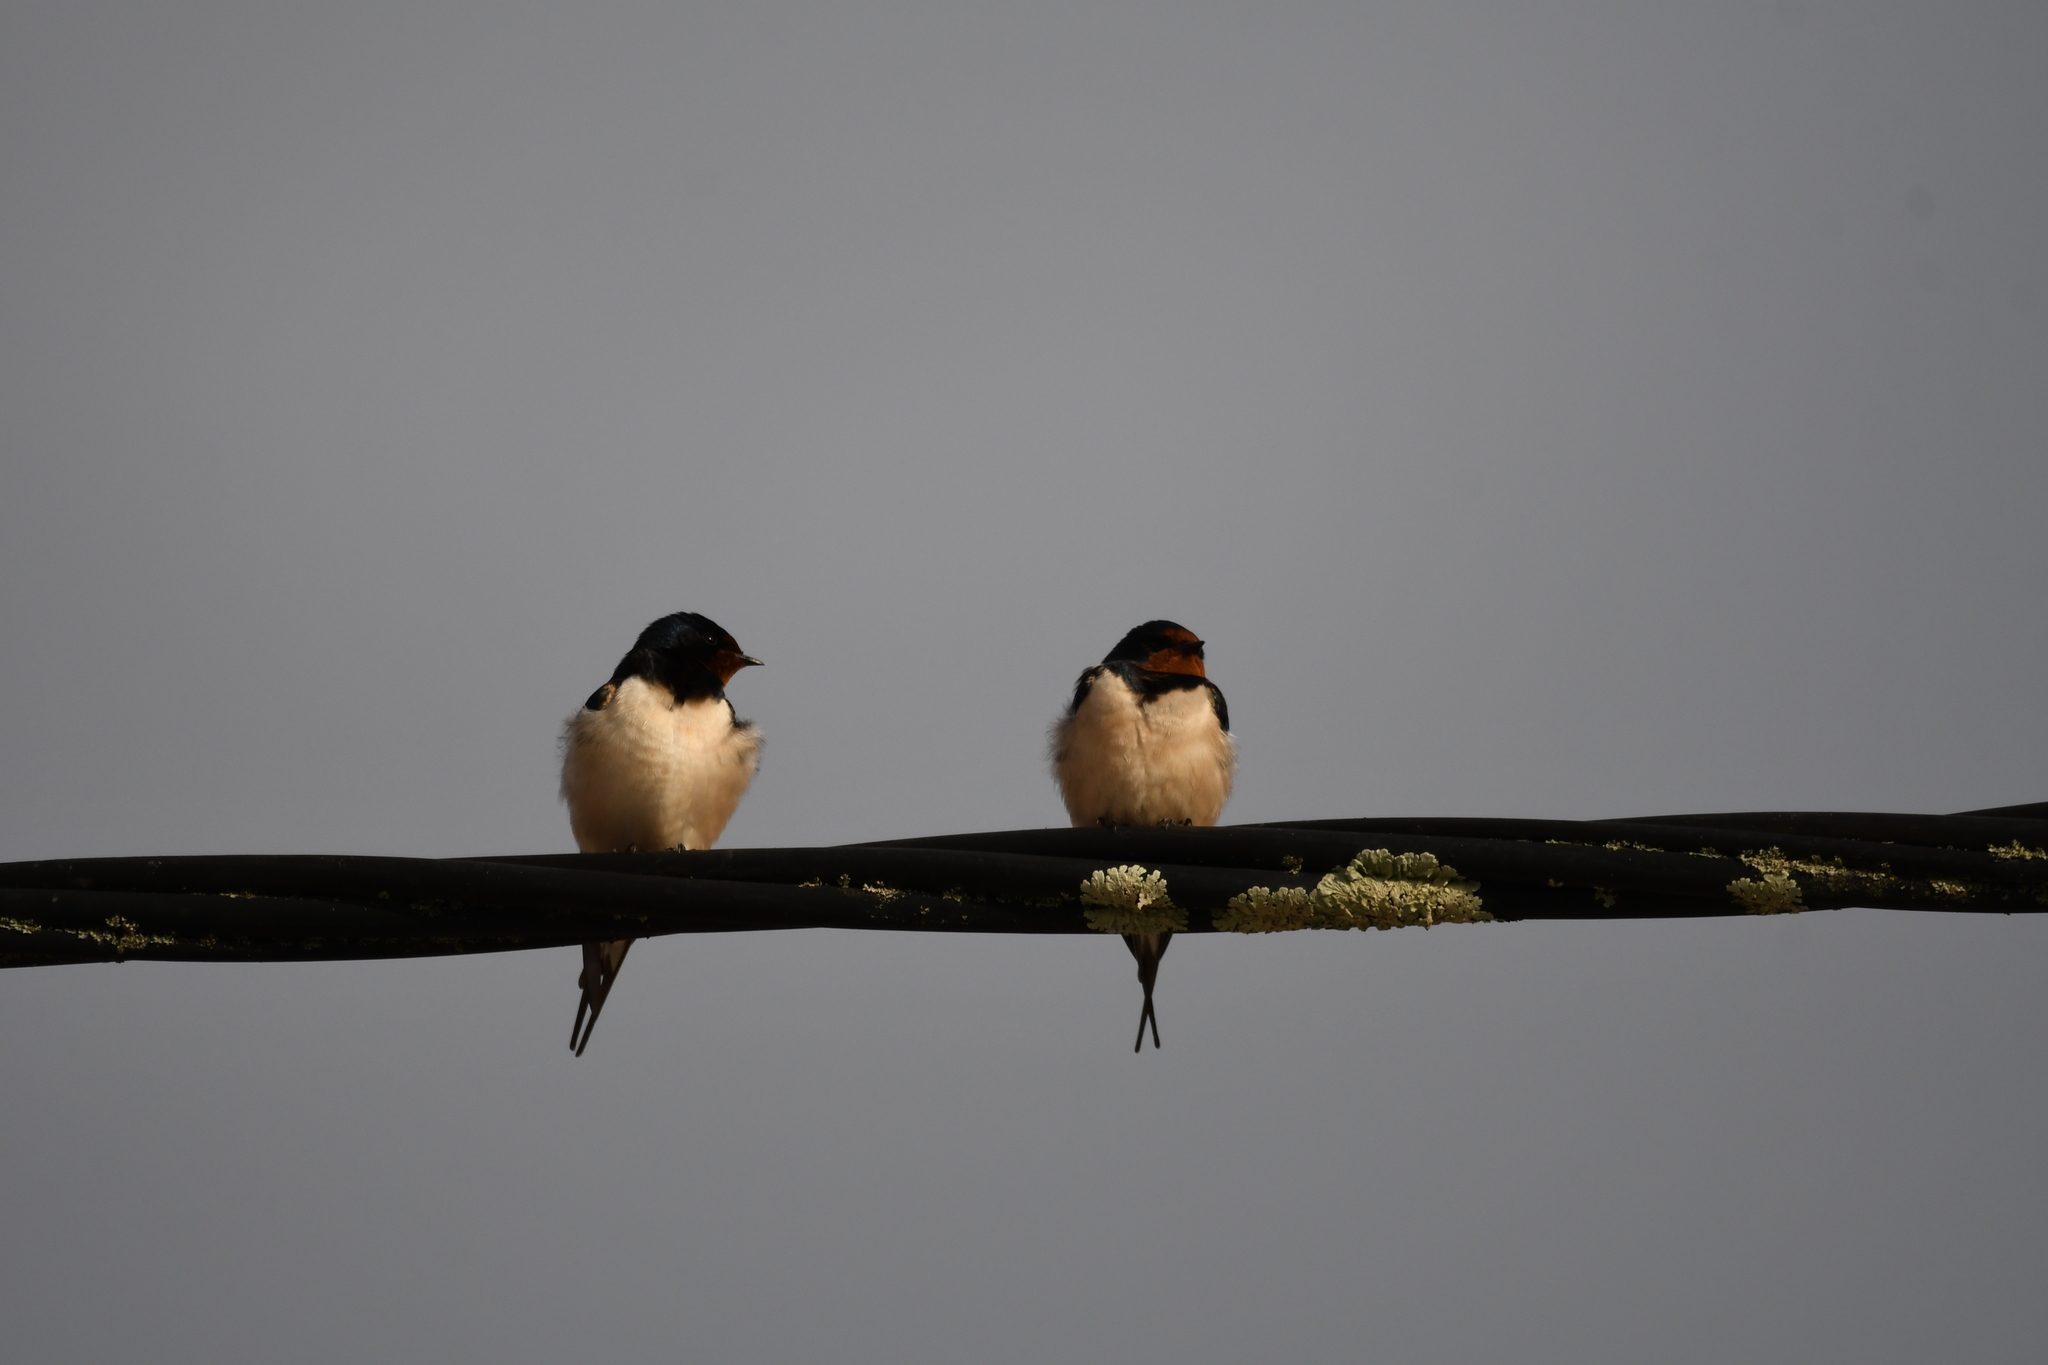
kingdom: Animalia
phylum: Chordata
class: Aves
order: Passeriformes
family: Hirundinidae
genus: Hirundo
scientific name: Hirundo rustica
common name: Barn swallow
